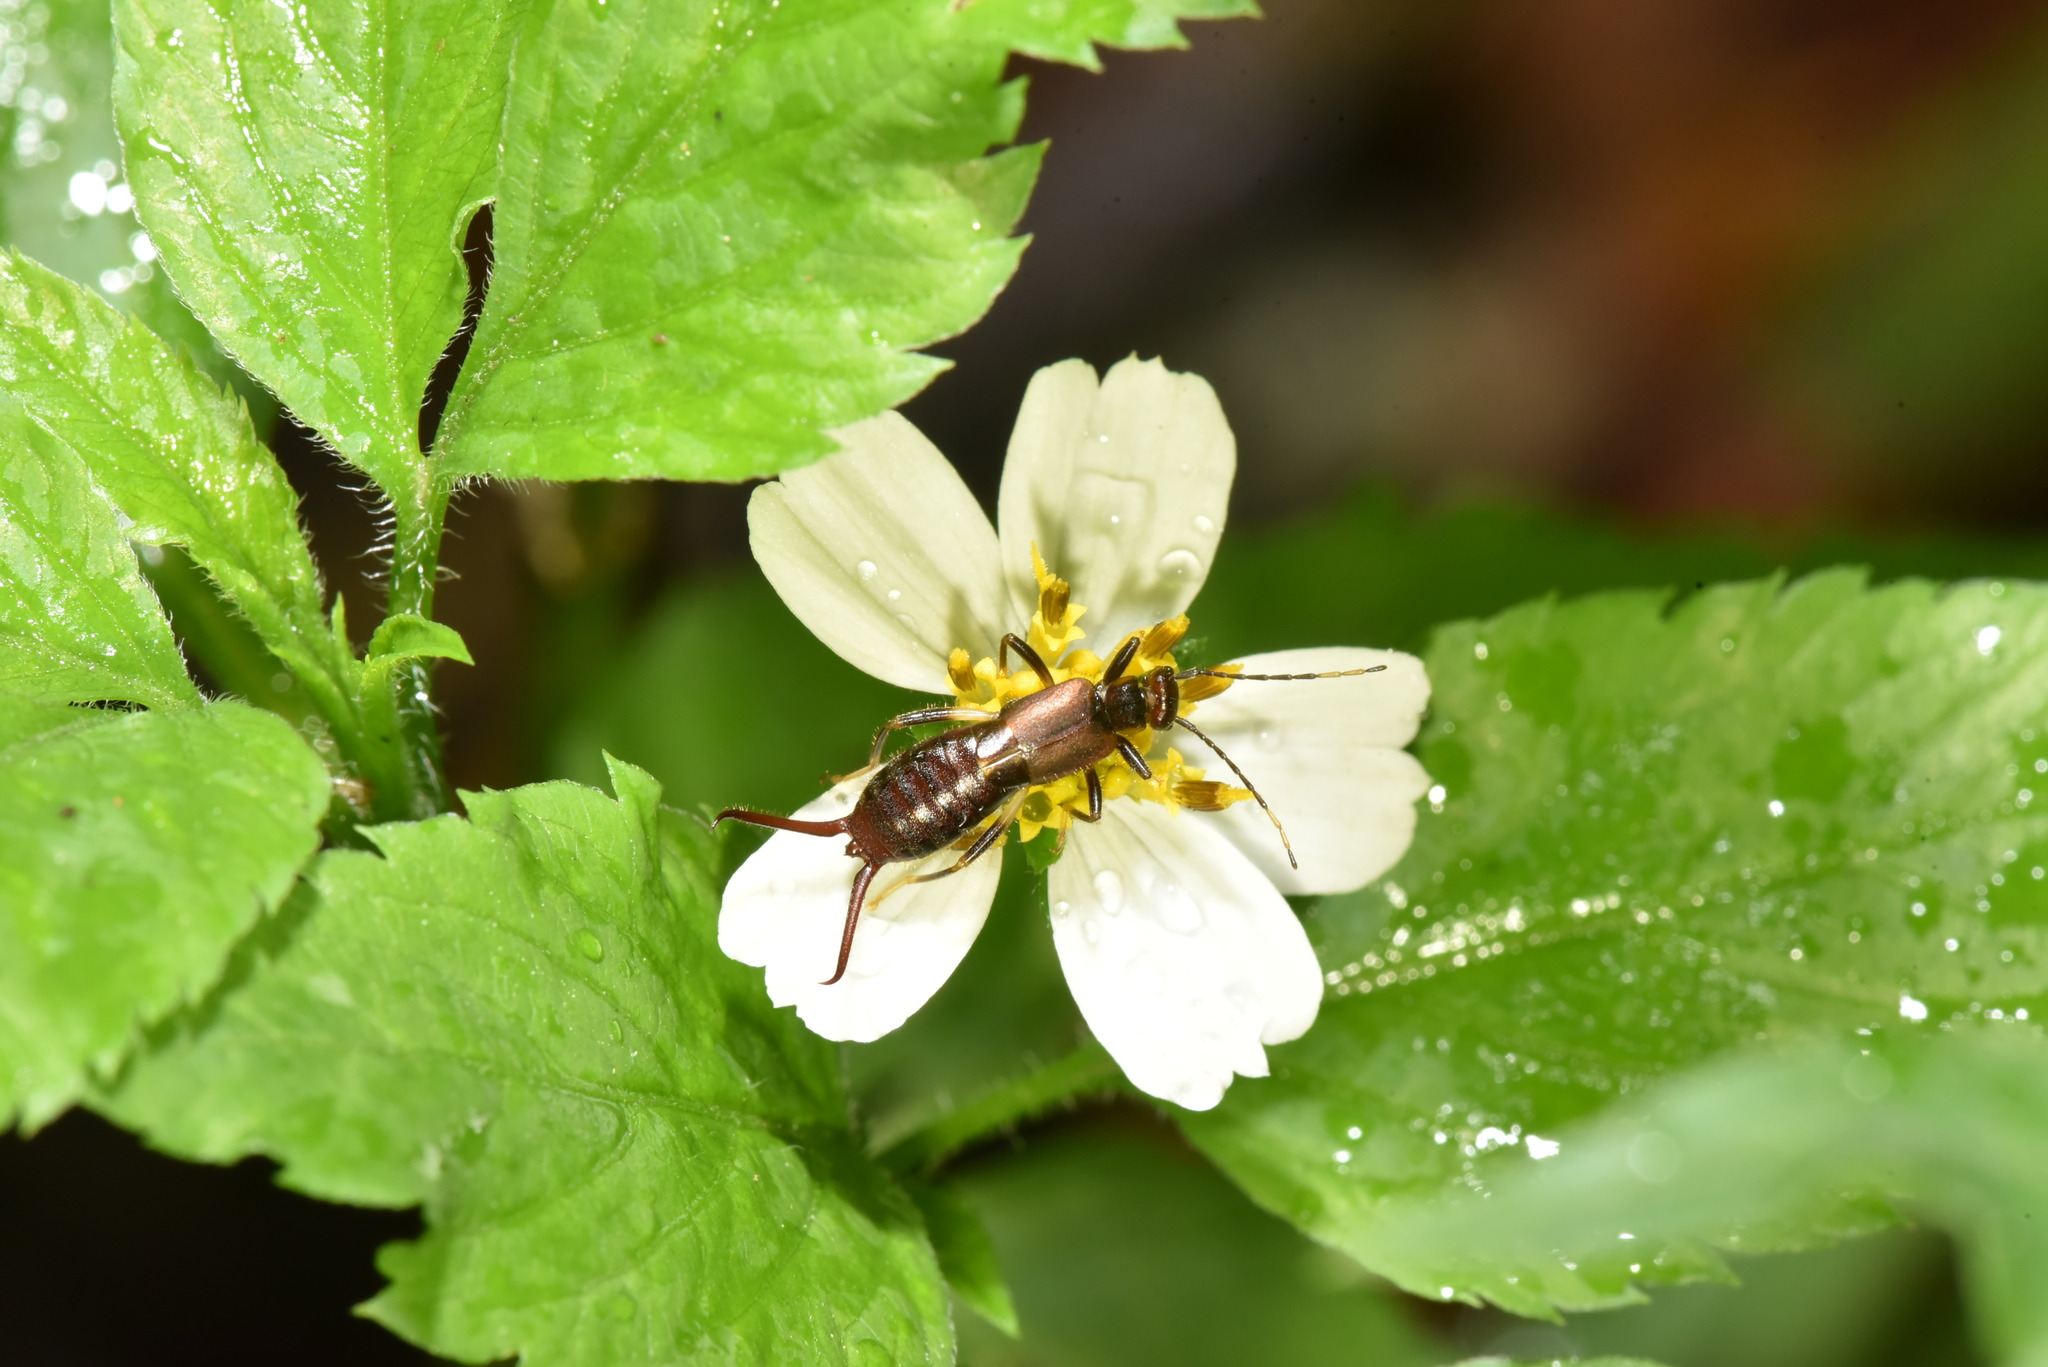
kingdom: Animalia
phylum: Arthropoda
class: Insecta
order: Dermaptera
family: Forficulidae
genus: Timomenus
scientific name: Timomenus komarovi
